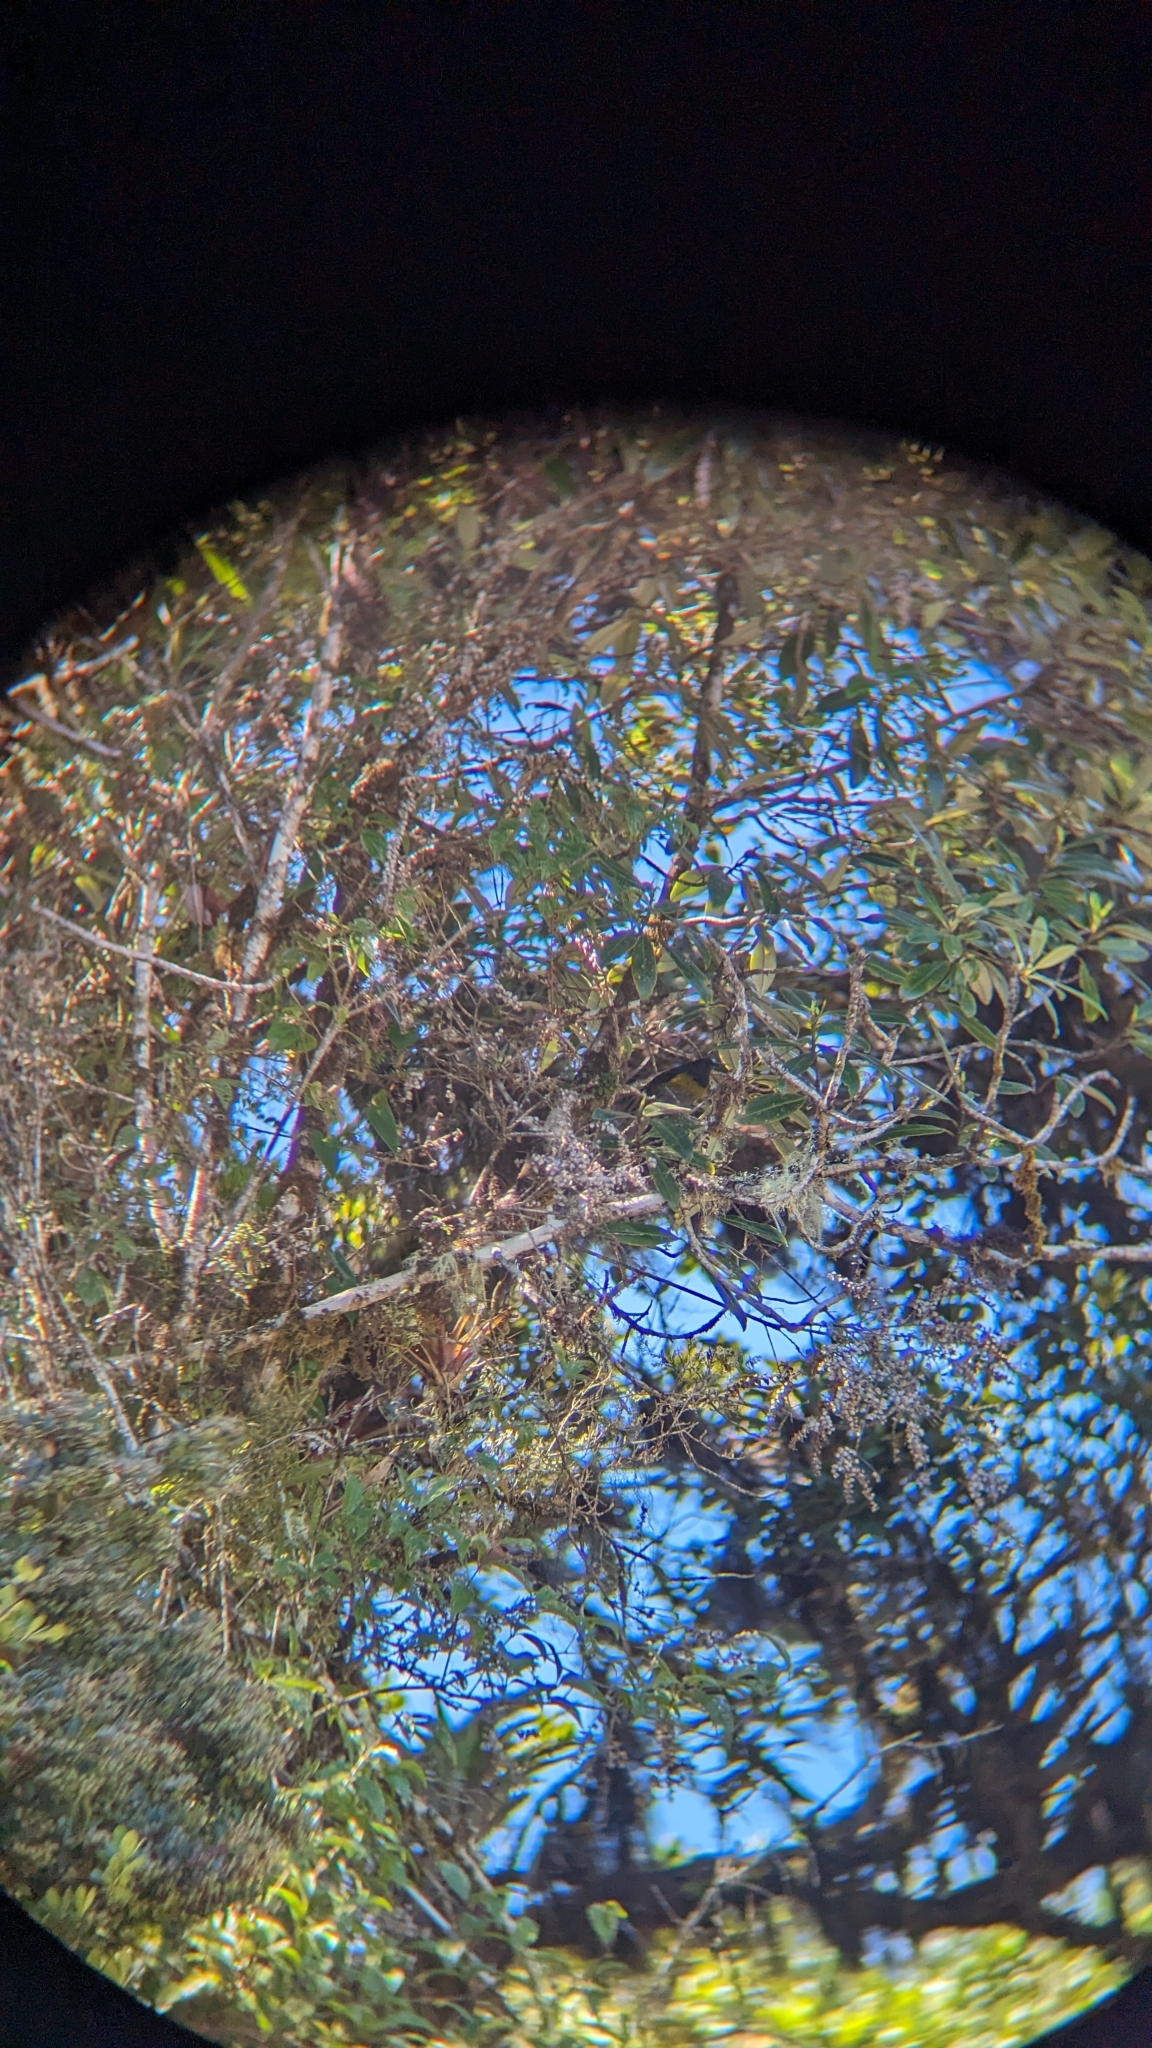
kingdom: Animalia
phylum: Chordata
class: Aves
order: Passeriformes
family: Passerellidae
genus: Pezopetes
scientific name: Pezopetes capitalis
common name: Large-footed finch
